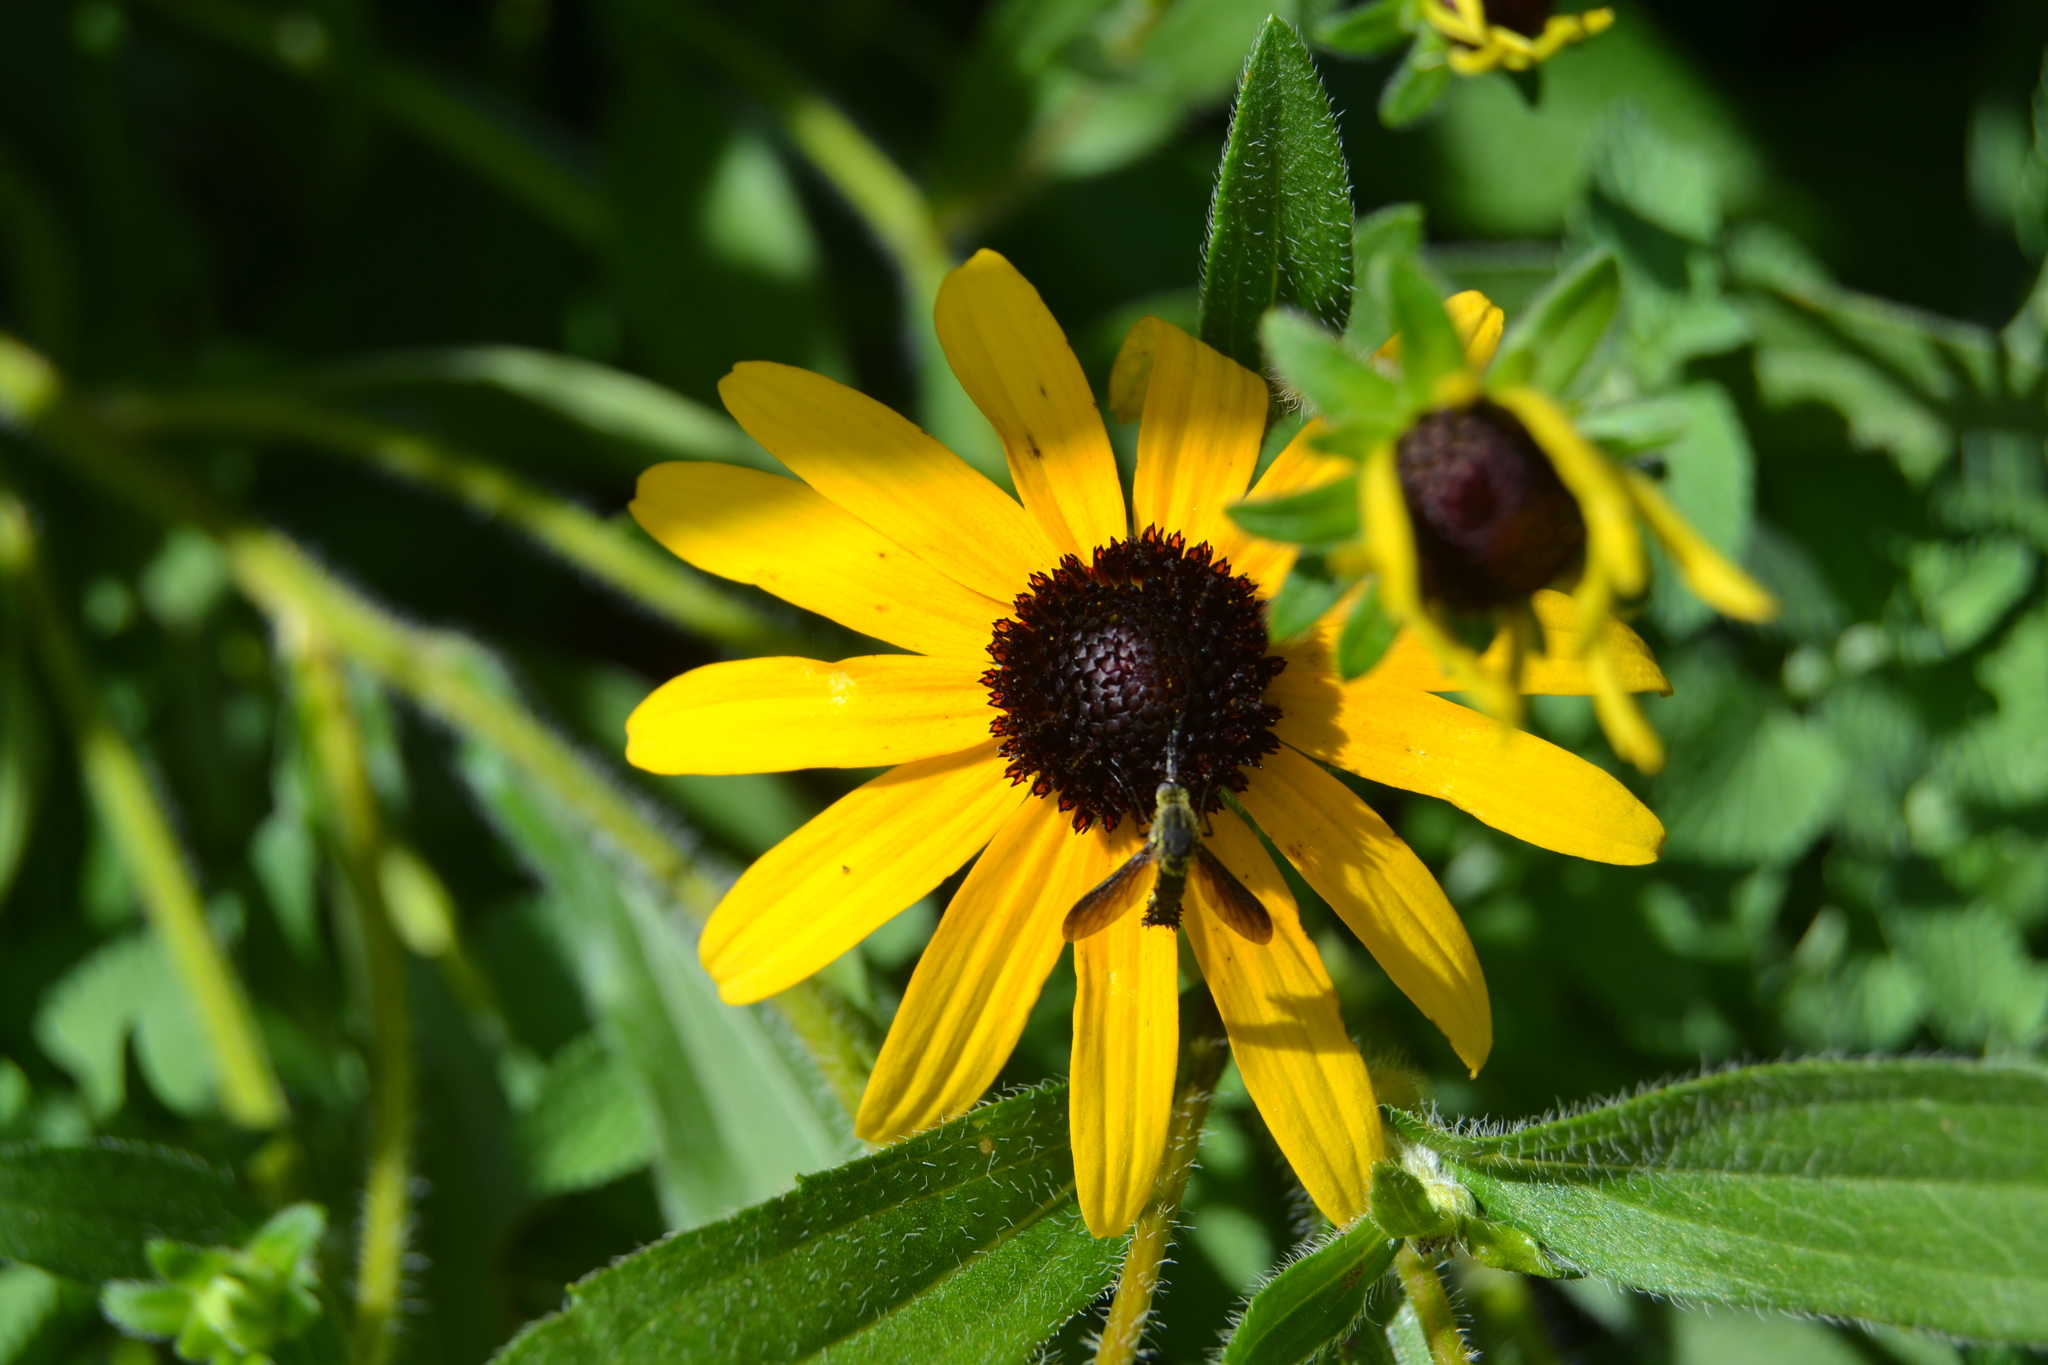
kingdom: Animalia
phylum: Arthropoda
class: Insecta
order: Diptera
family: Bombyliidae
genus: Lepidophora
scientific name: Lepidophora lepidocera
